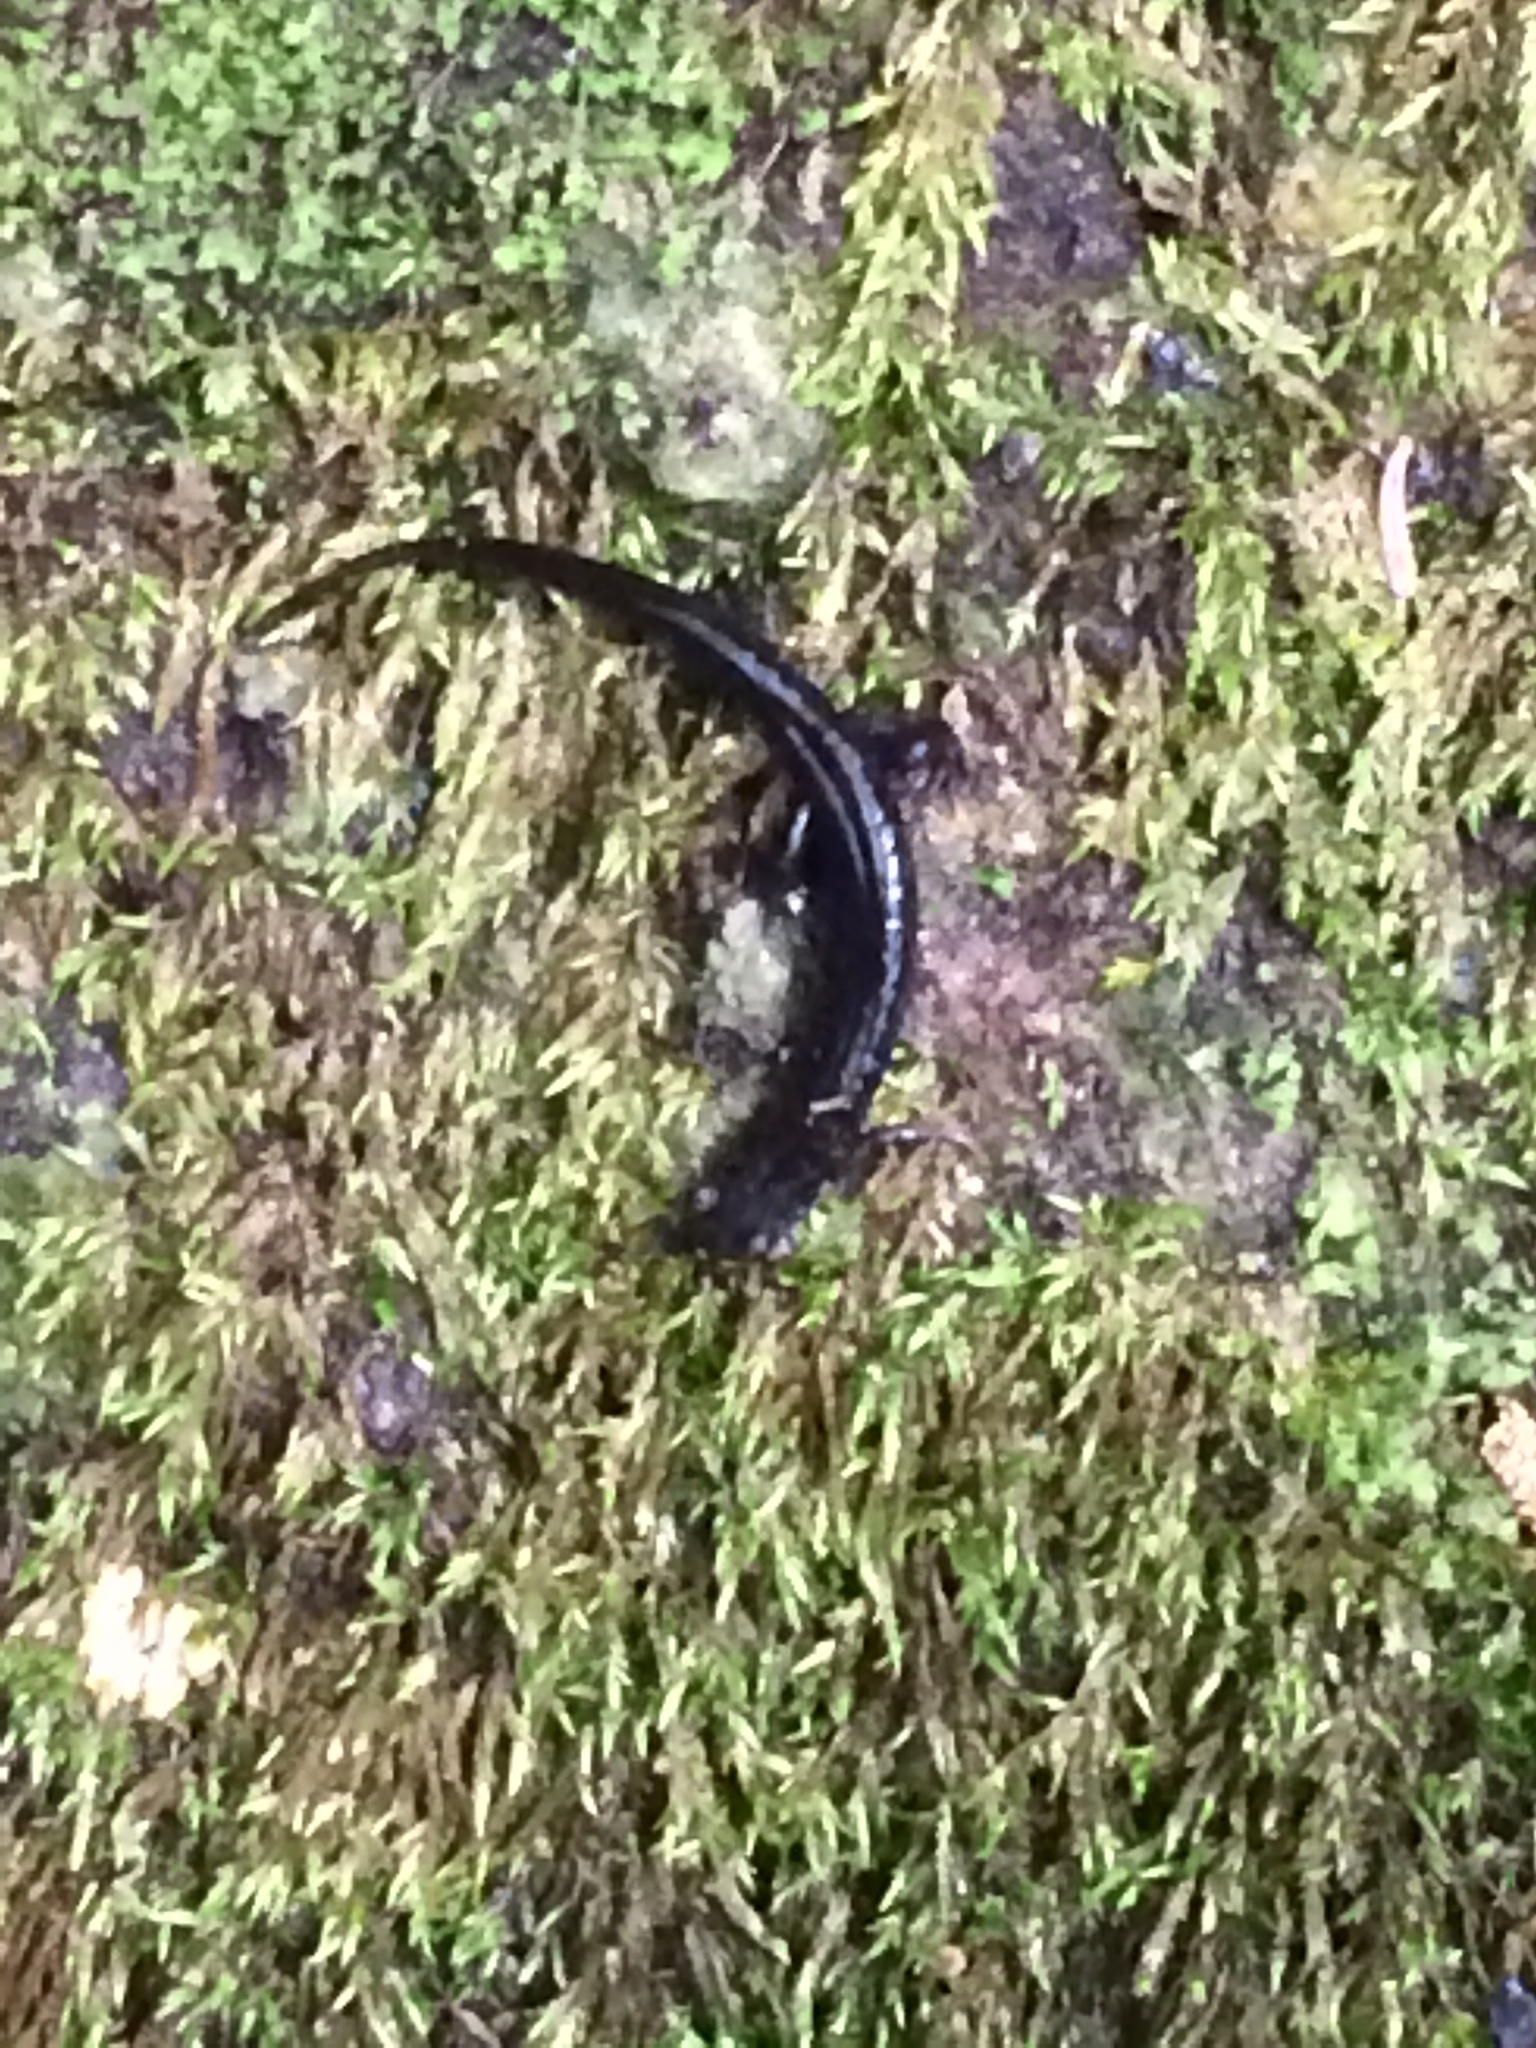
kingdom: Animalia
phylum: Chordata
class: Amphibia
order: Caudata
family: Plethodontidae
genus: Desmognathus
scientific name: Desmognathus carolinensis
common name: Carolina mountain dusky salamander
